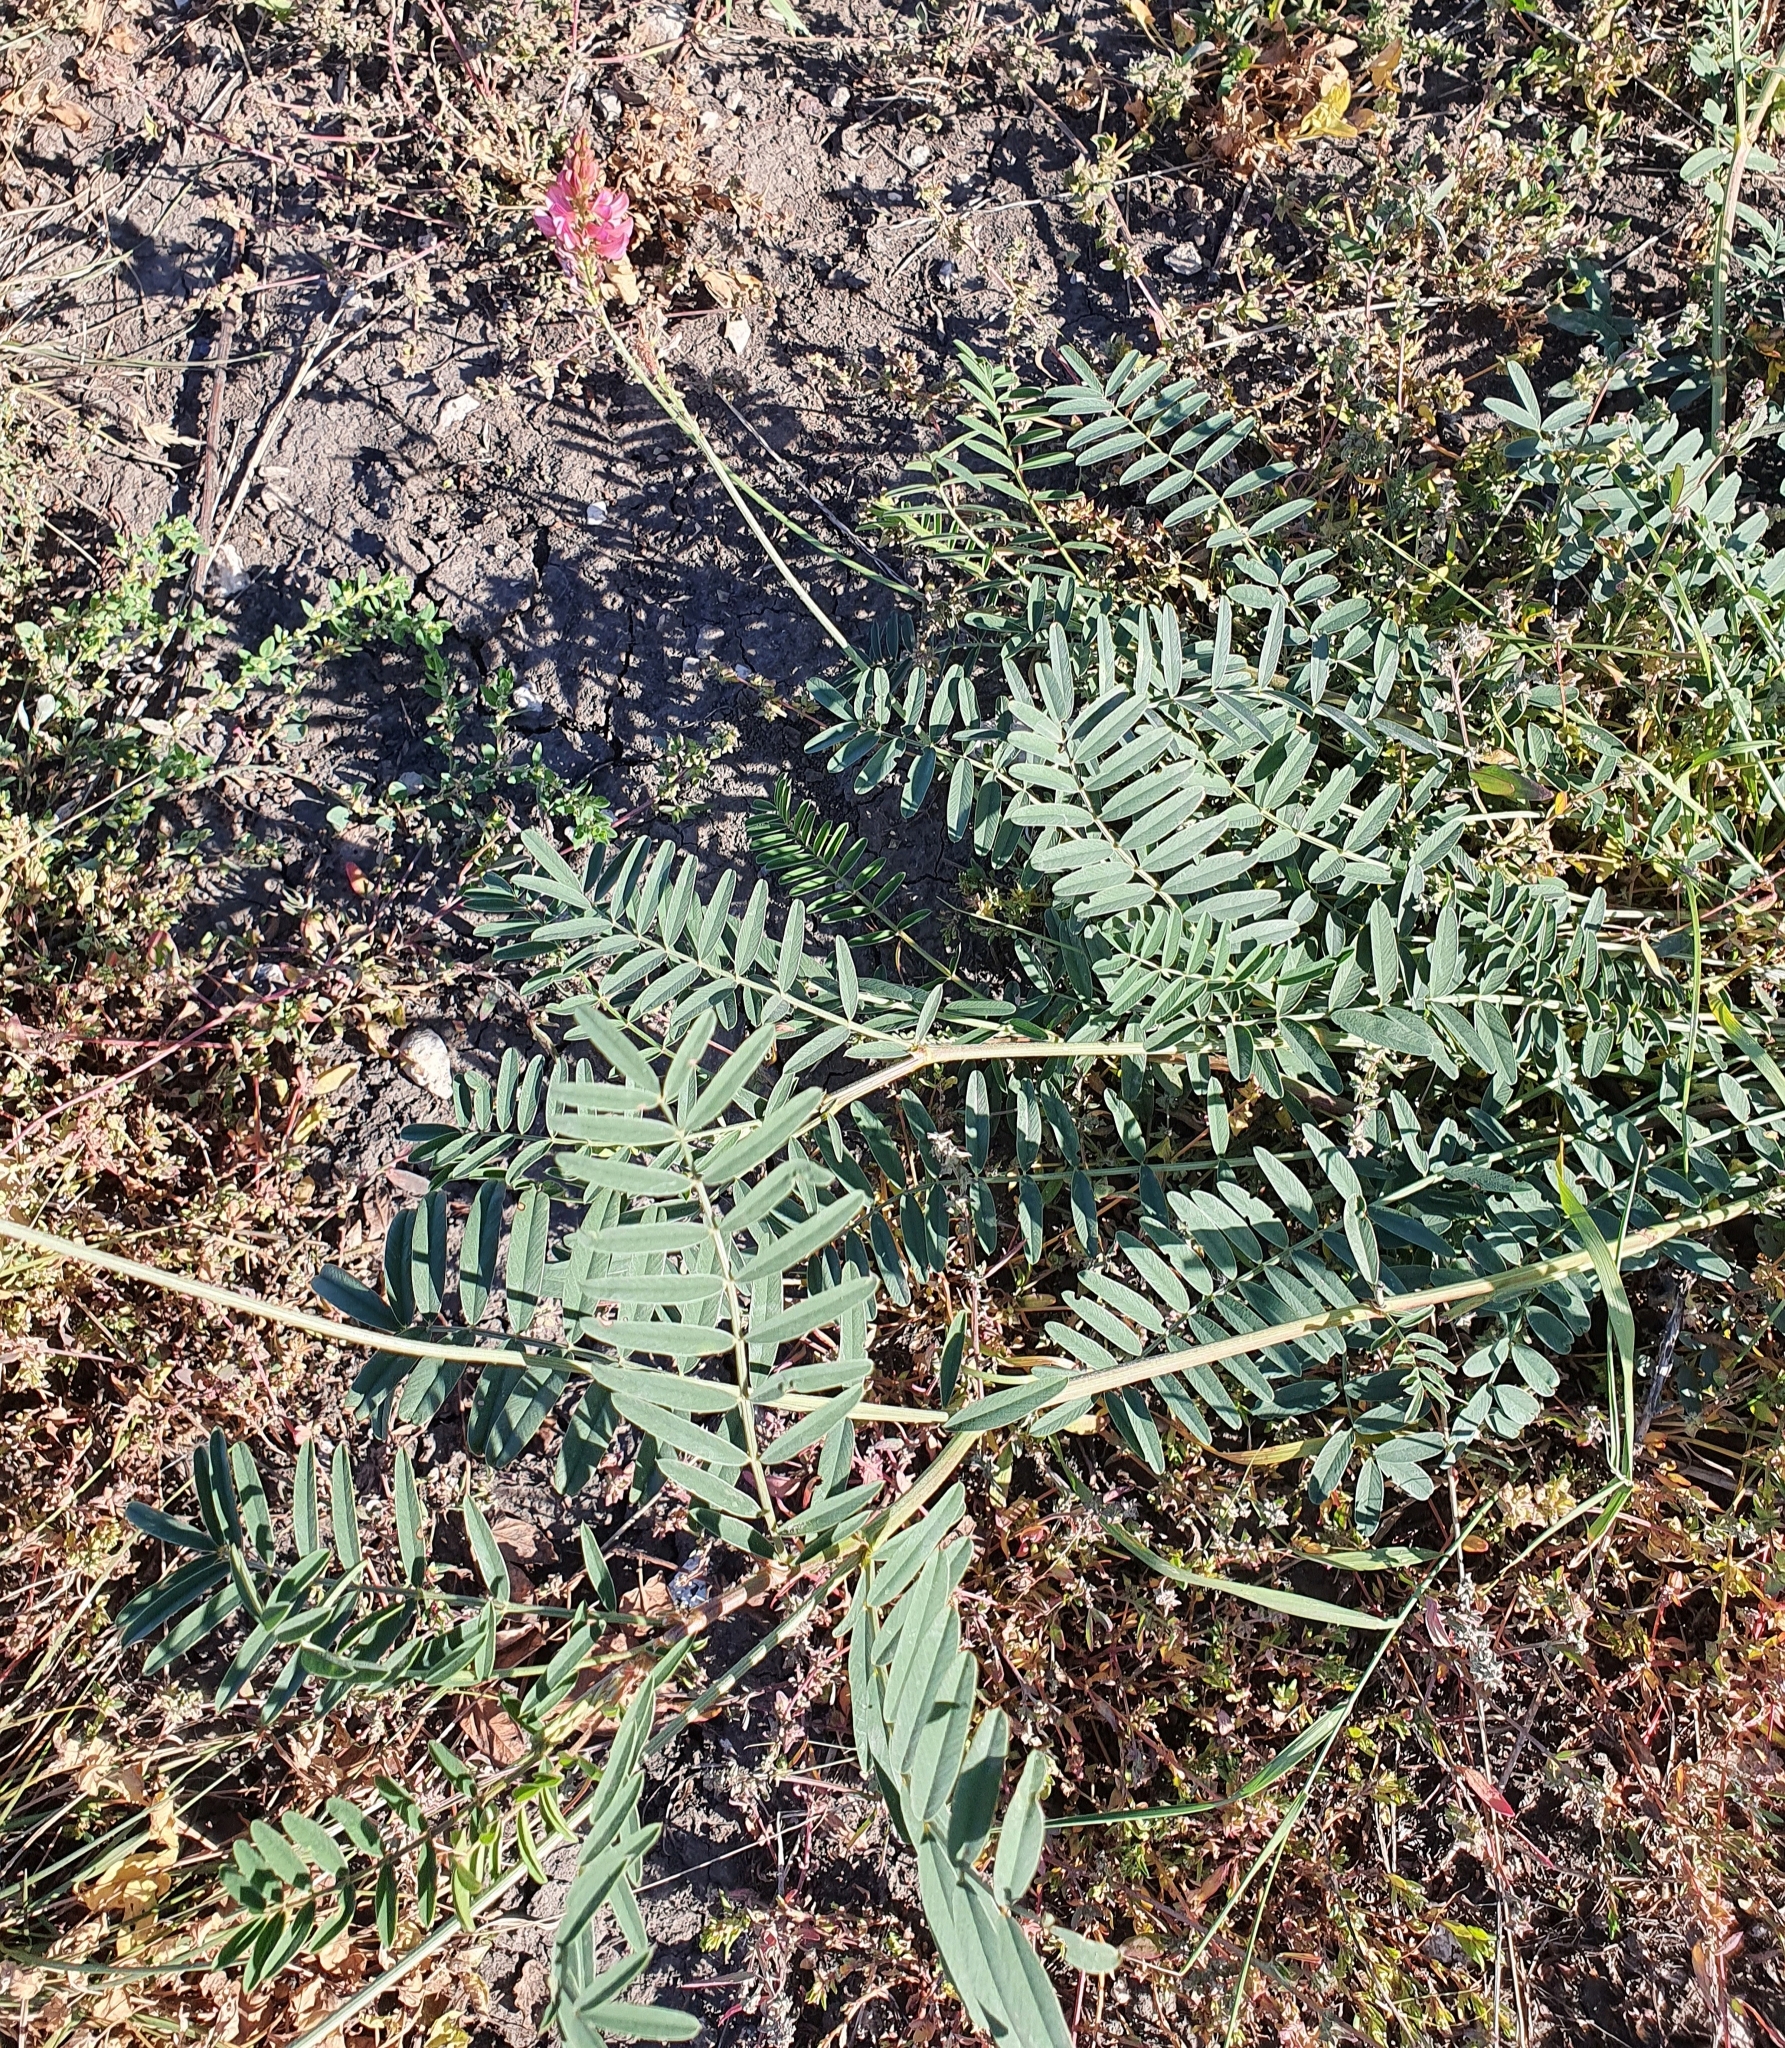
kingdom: Plantae
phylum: Tracheophyta
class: Magnoliopsida
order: Fabales
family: Fabaceae
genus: Onobrychis
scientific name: Onobrychis arenaria
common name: Sand esparcet
